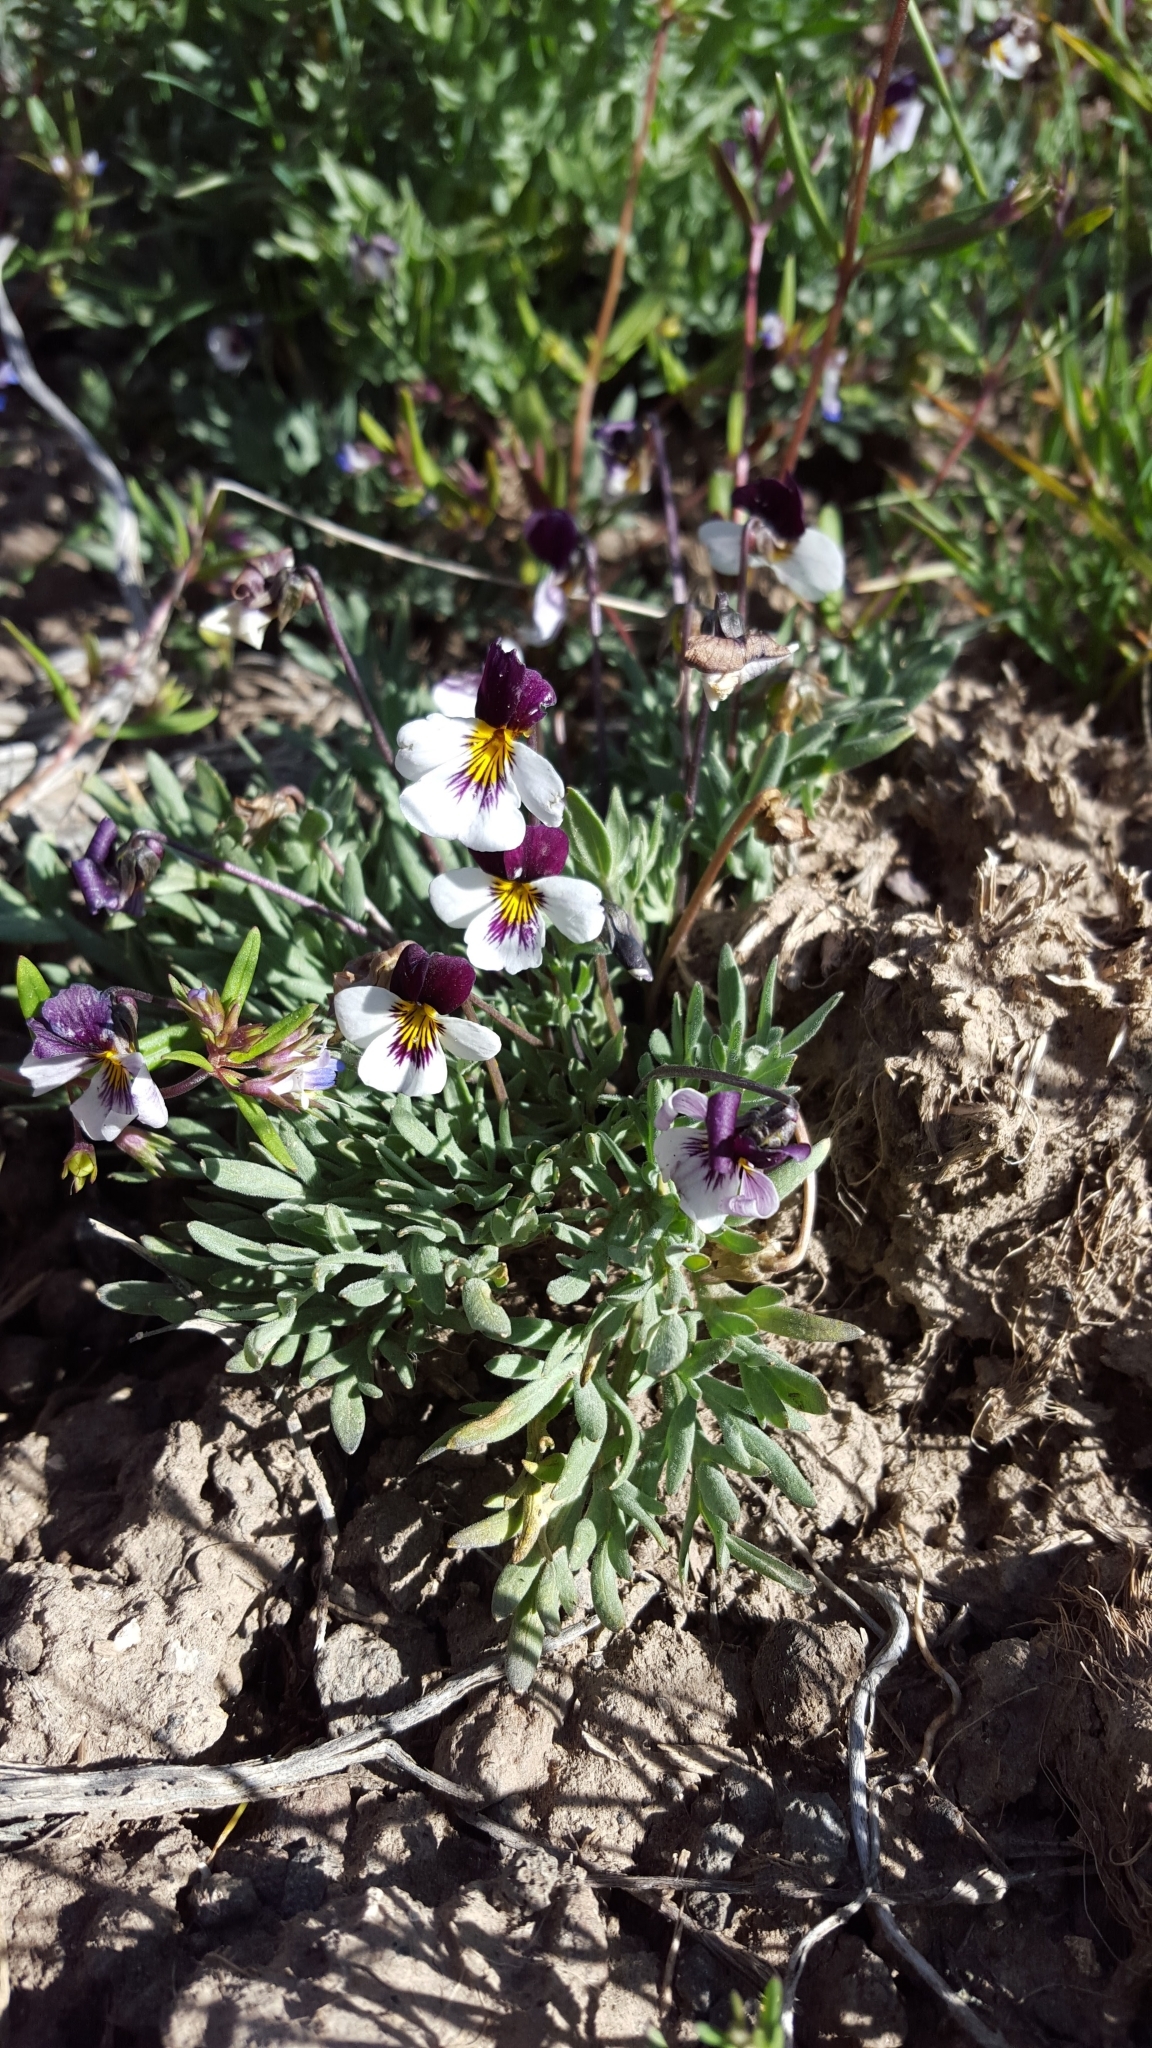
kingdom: Plantae
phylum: Tracheophyta
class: Magnoliopsida
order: Malpighiales
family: Violaceae
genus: Viola
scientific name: Viola beckwithii
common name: Beckwith's violet
